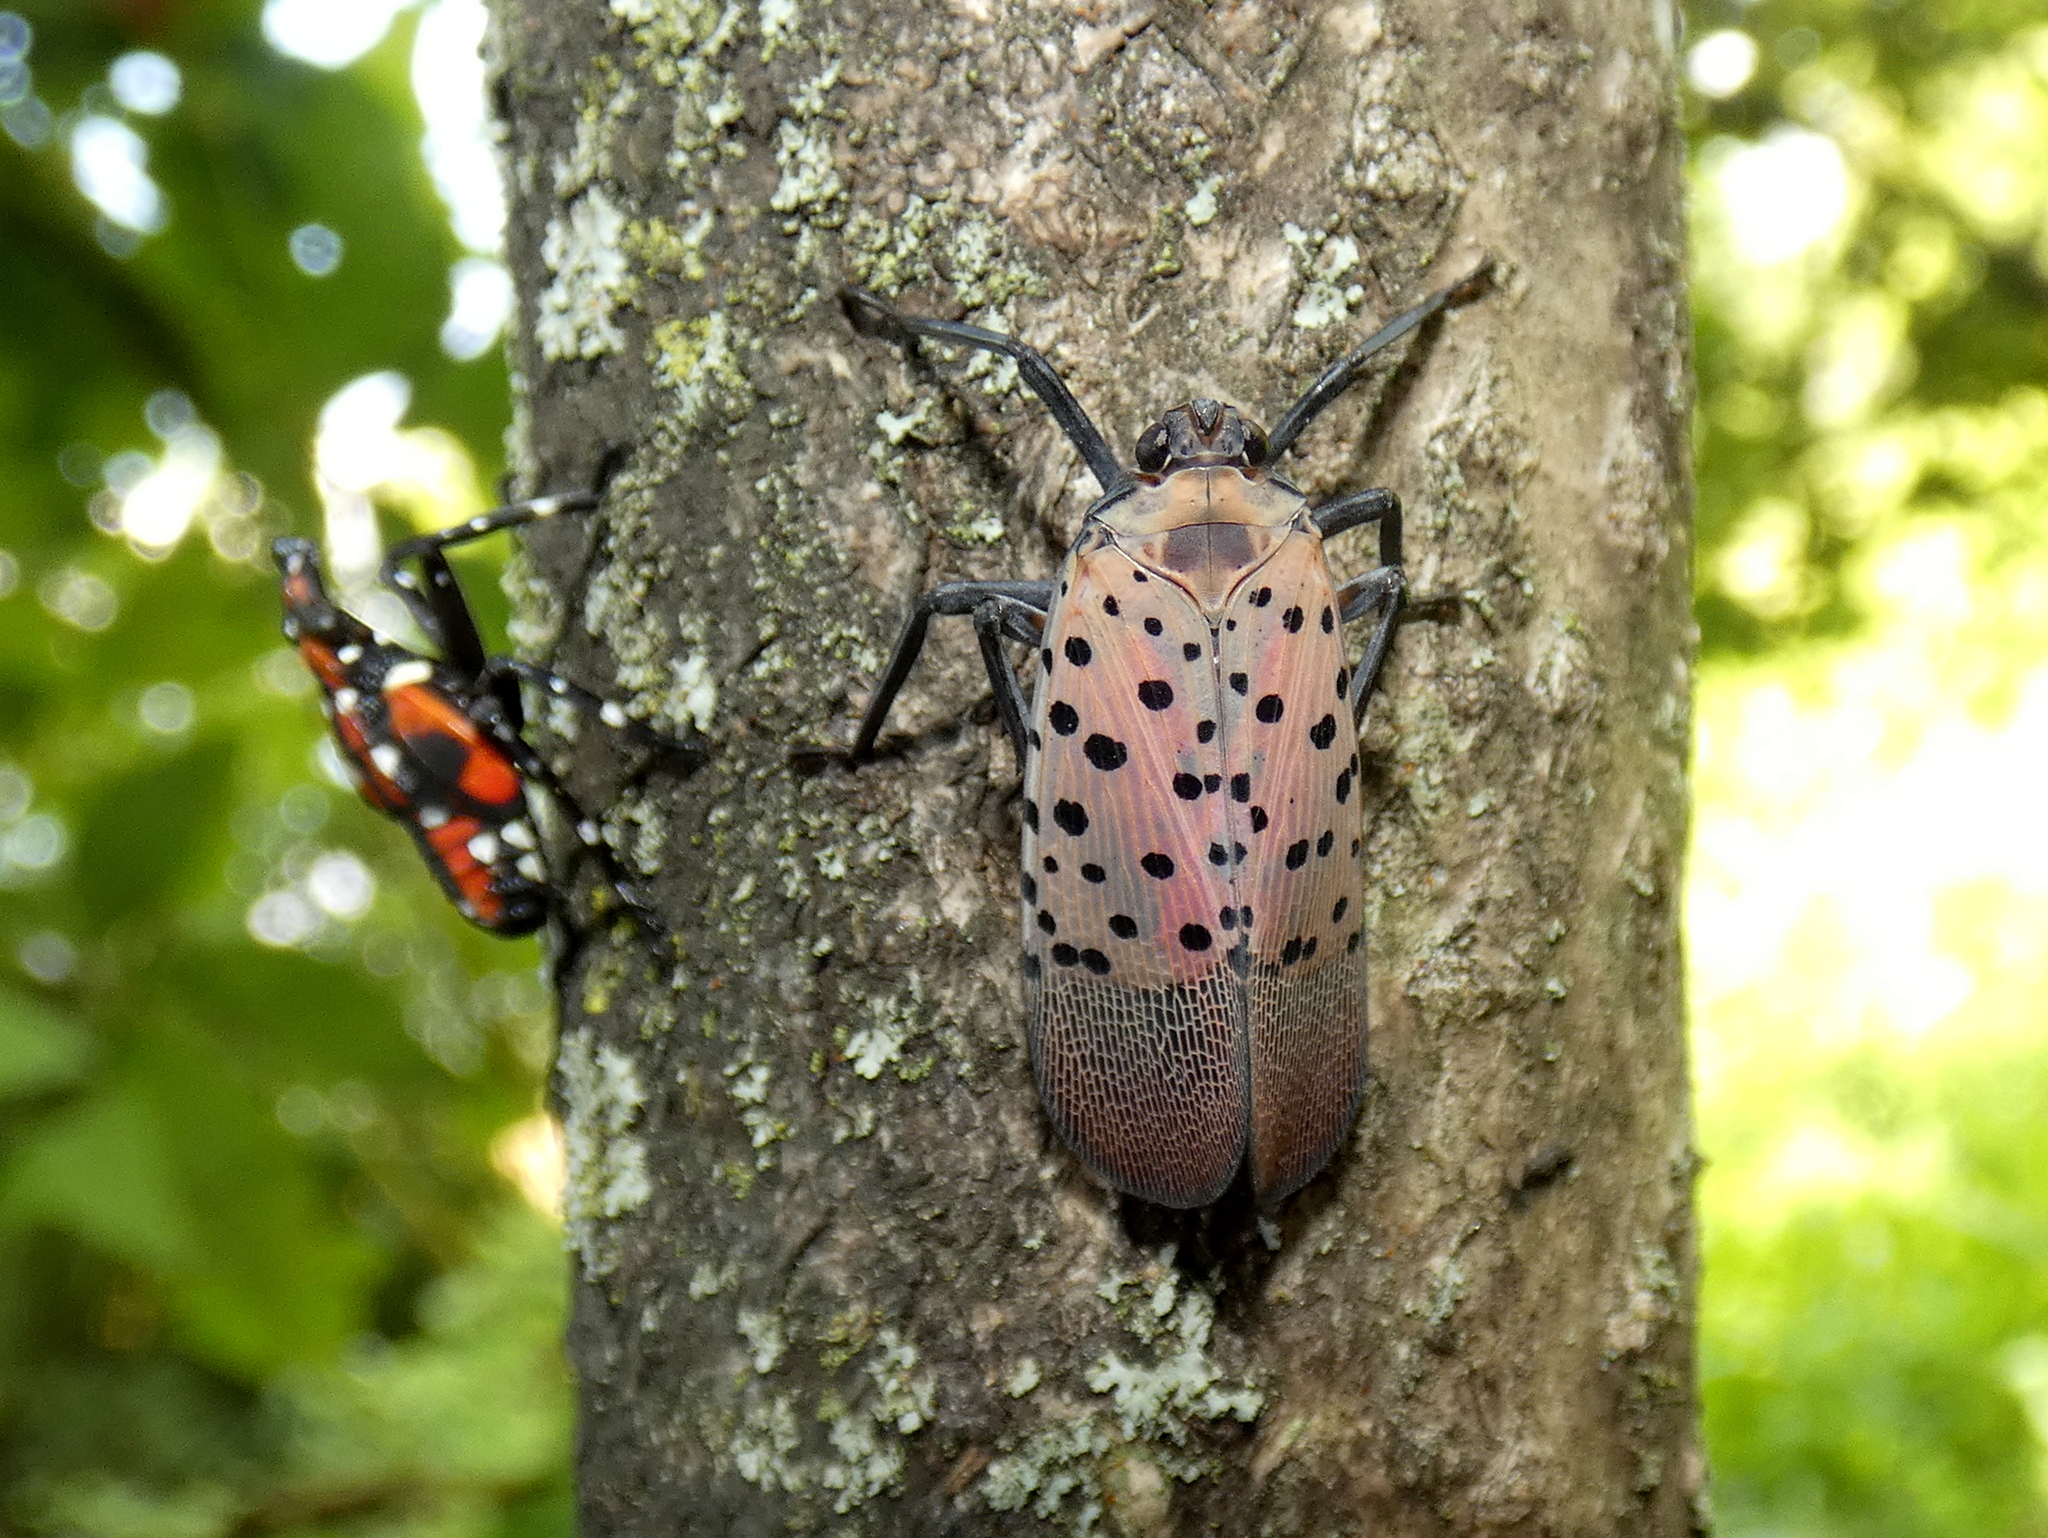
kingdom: Animalia
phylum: Arthropoda
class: Insecta
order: Hemiptera
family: Fulgoridae
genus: Lycorma
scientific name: Lycorma delicatula
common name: Spotted lanternfly
